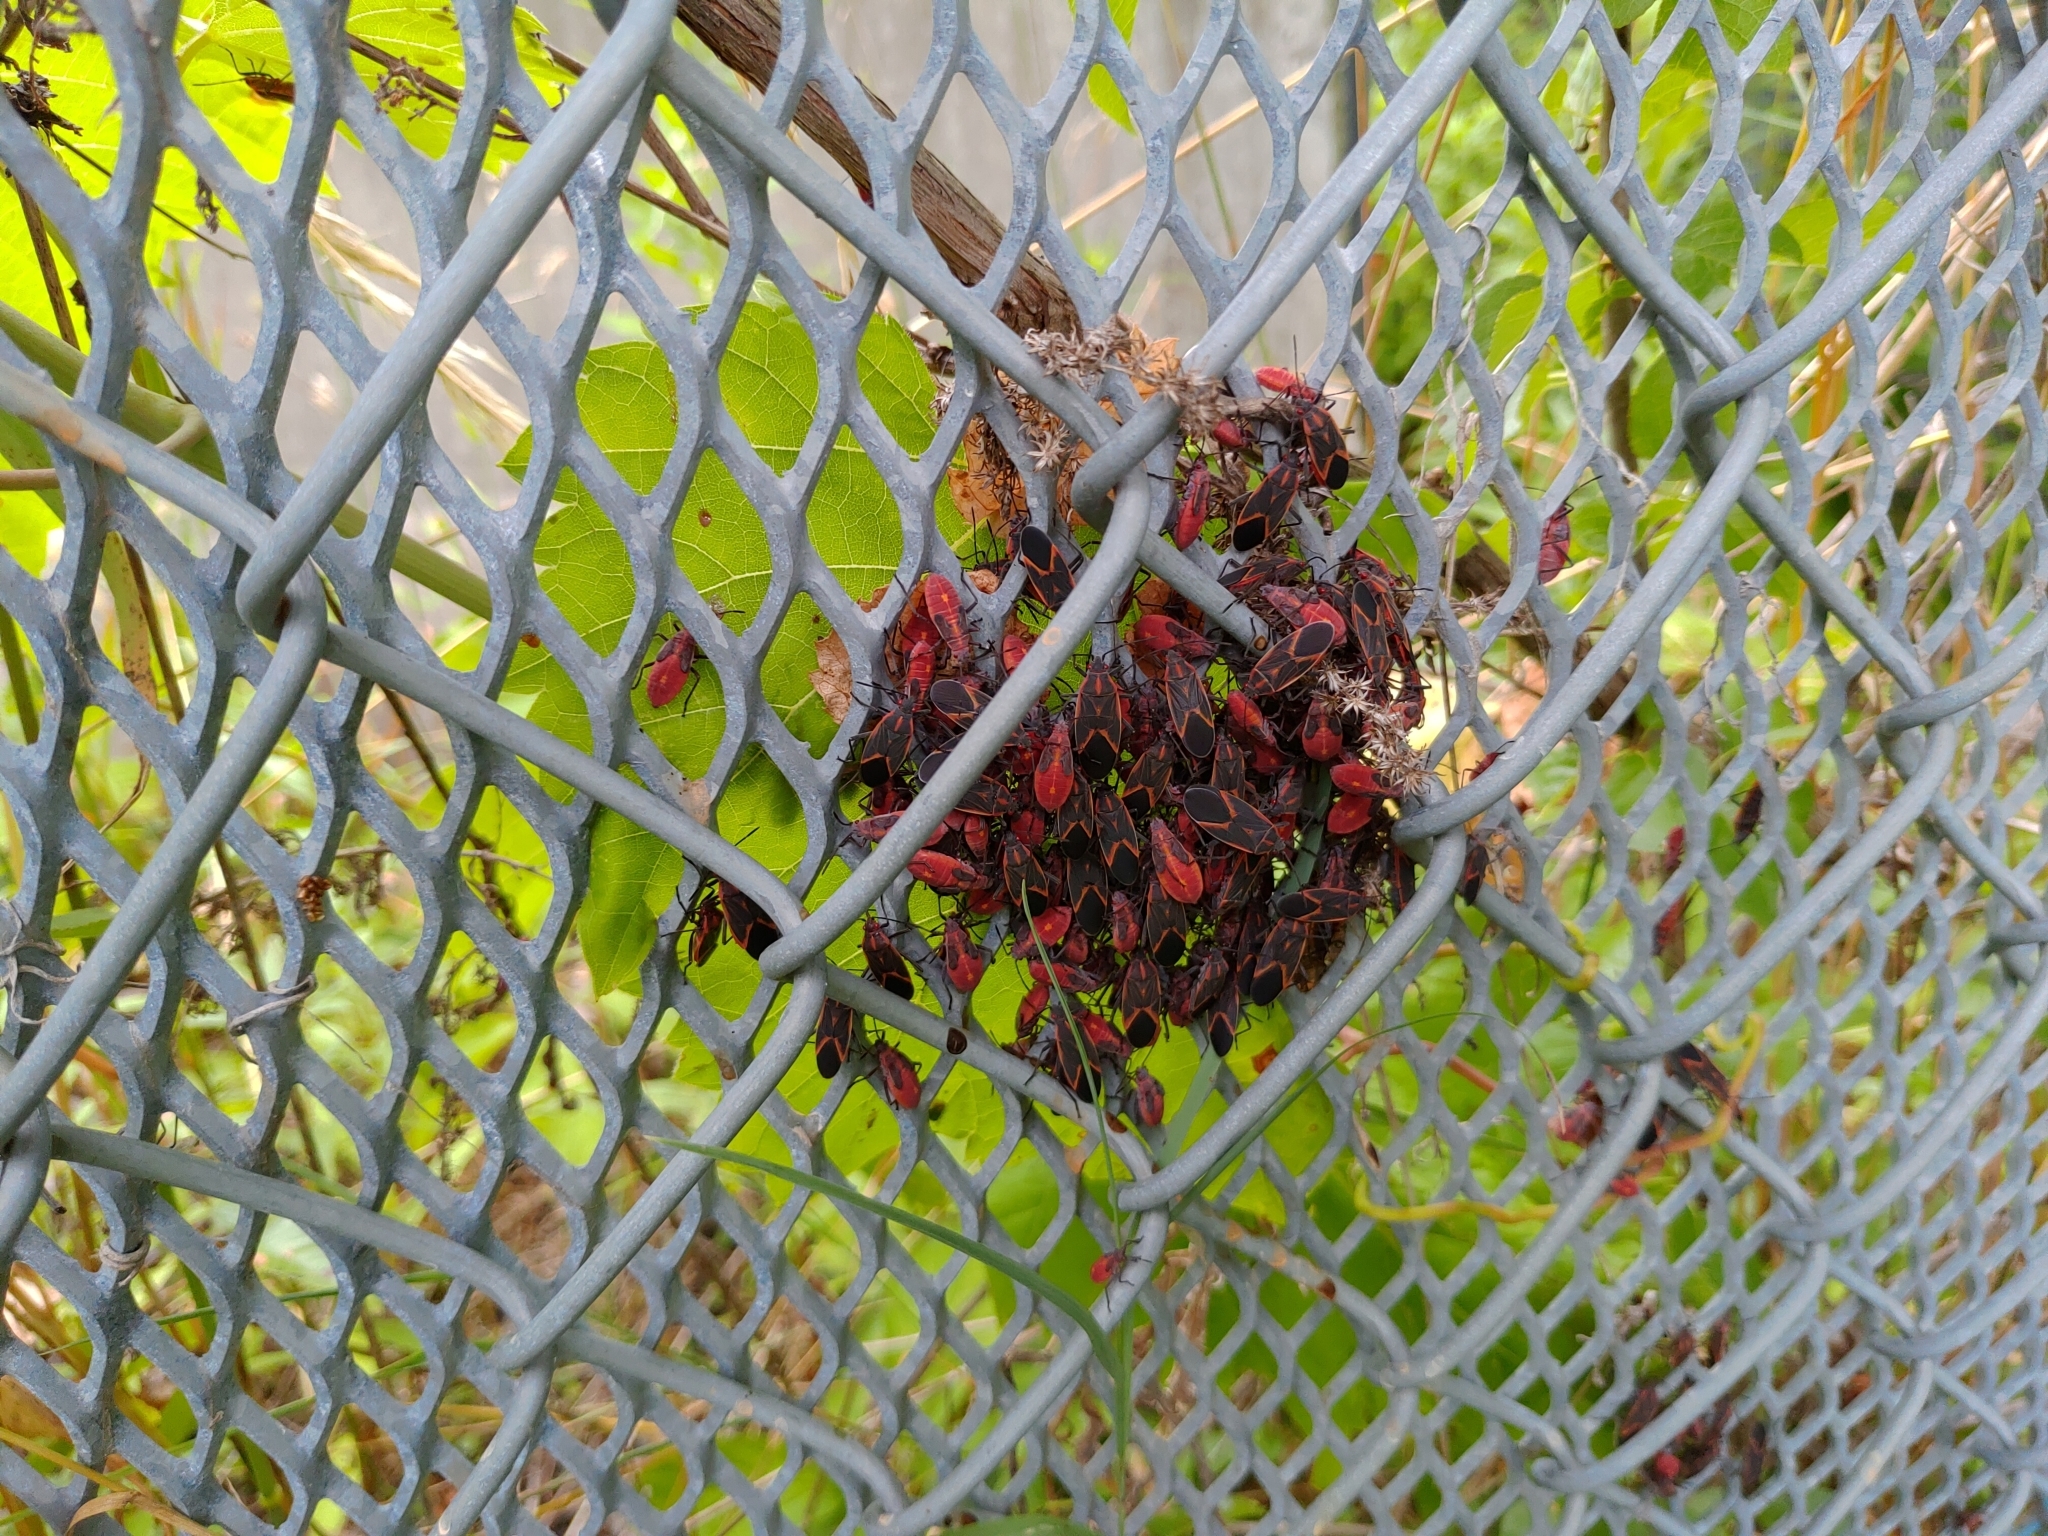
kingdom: Animalia
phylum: Arthropoda
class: Insecta
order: Hemiptera
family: Rhopalidae
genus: Boisea
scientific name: Boisea trivittata
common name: Boxelder bug
